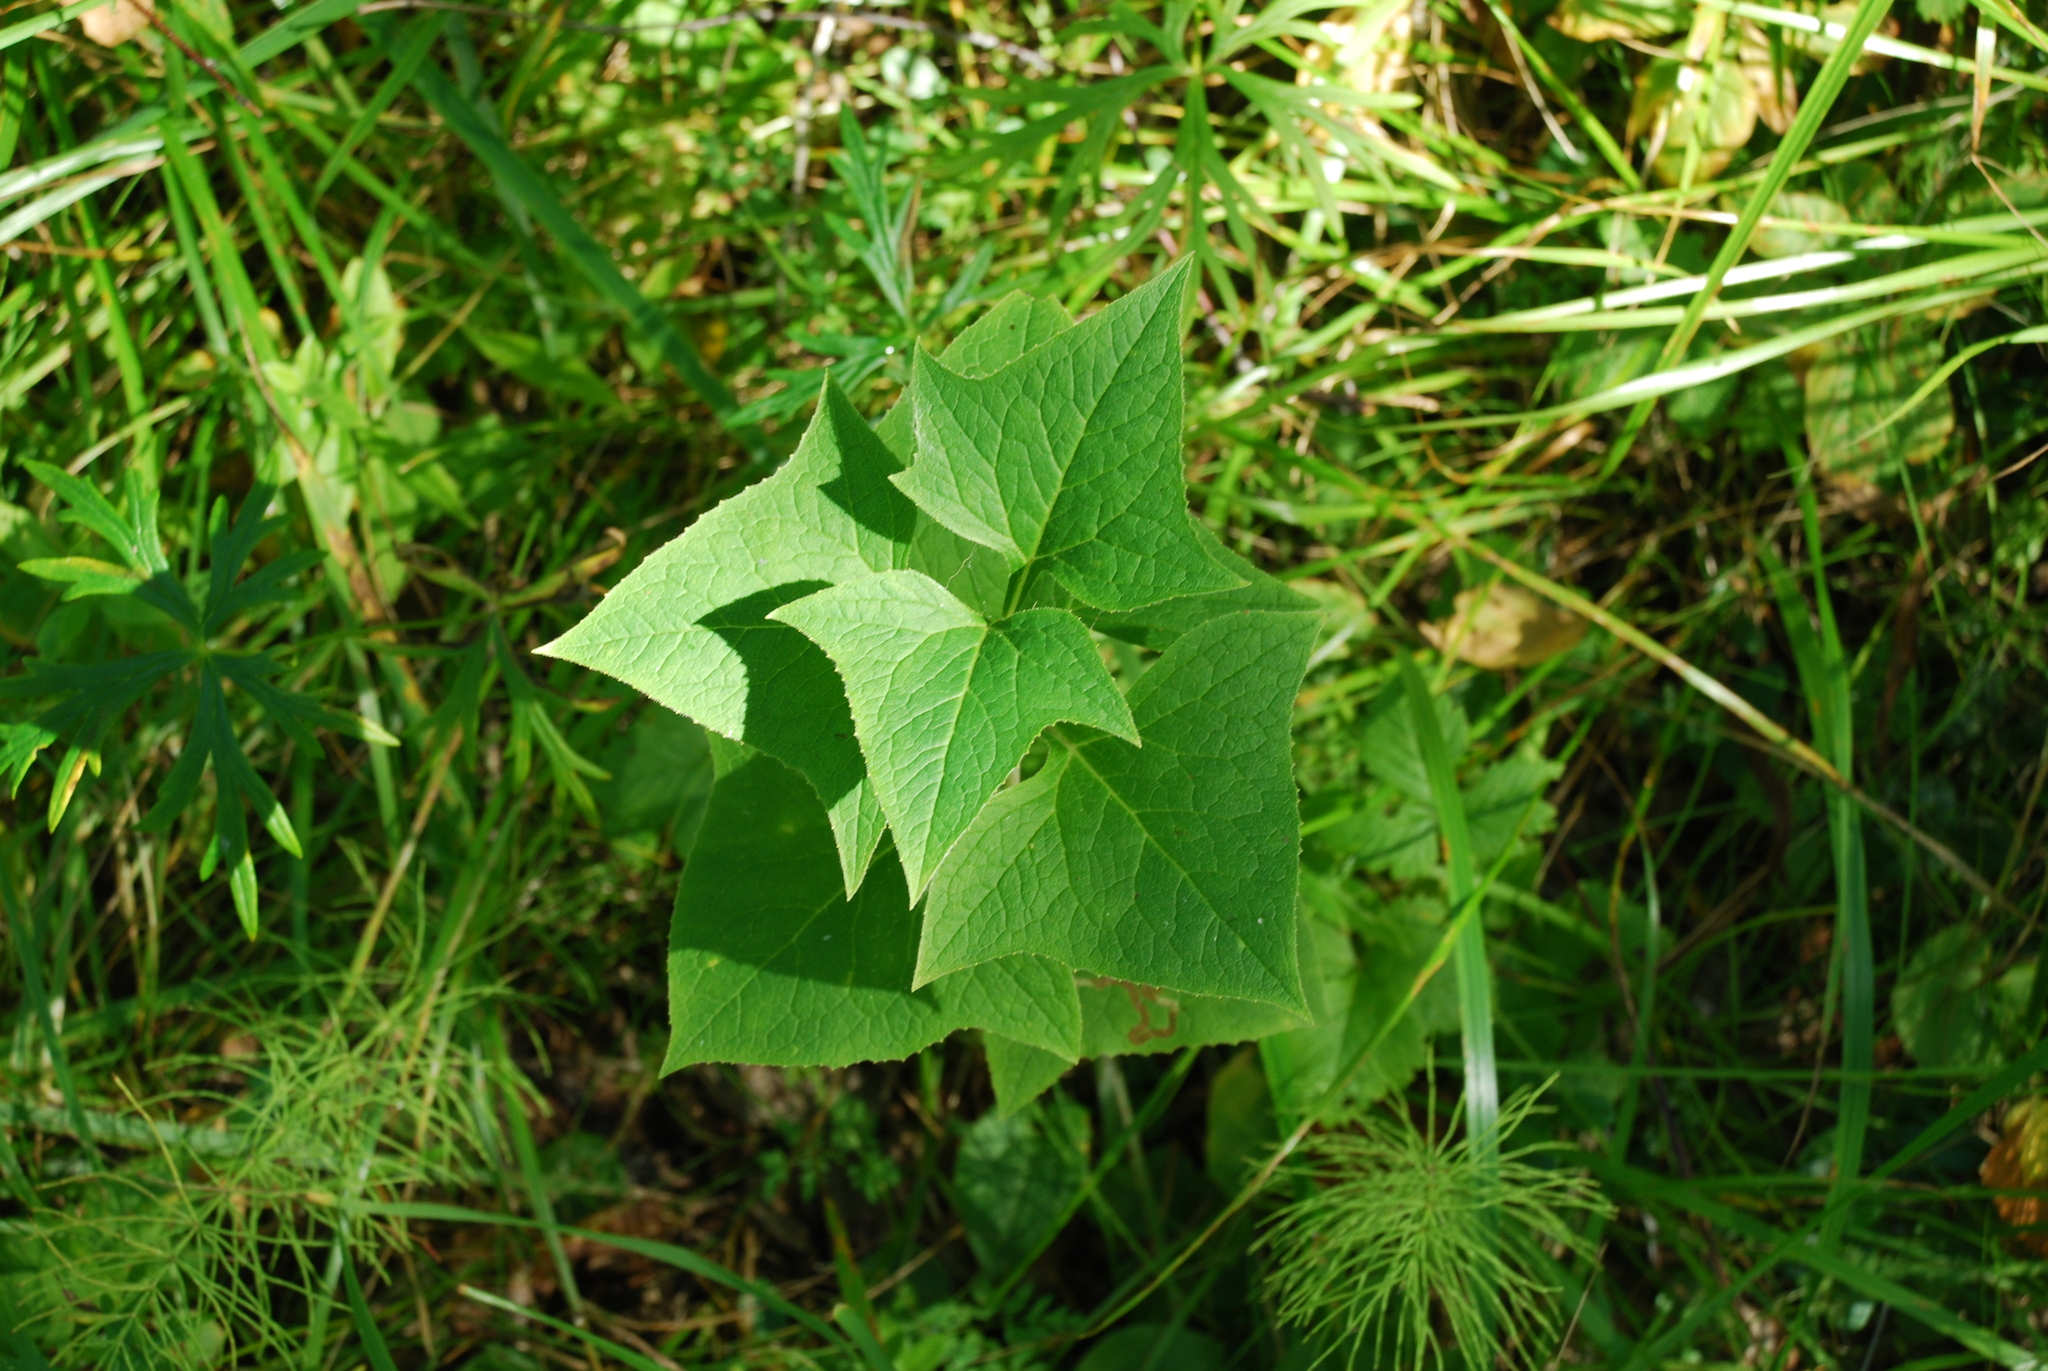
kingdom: Plantae
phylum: Tracheophyta
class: Magnoliopsida
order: Asterales
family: Asteraceae
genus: Parasenecio
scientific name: Parasenecio hastatus
